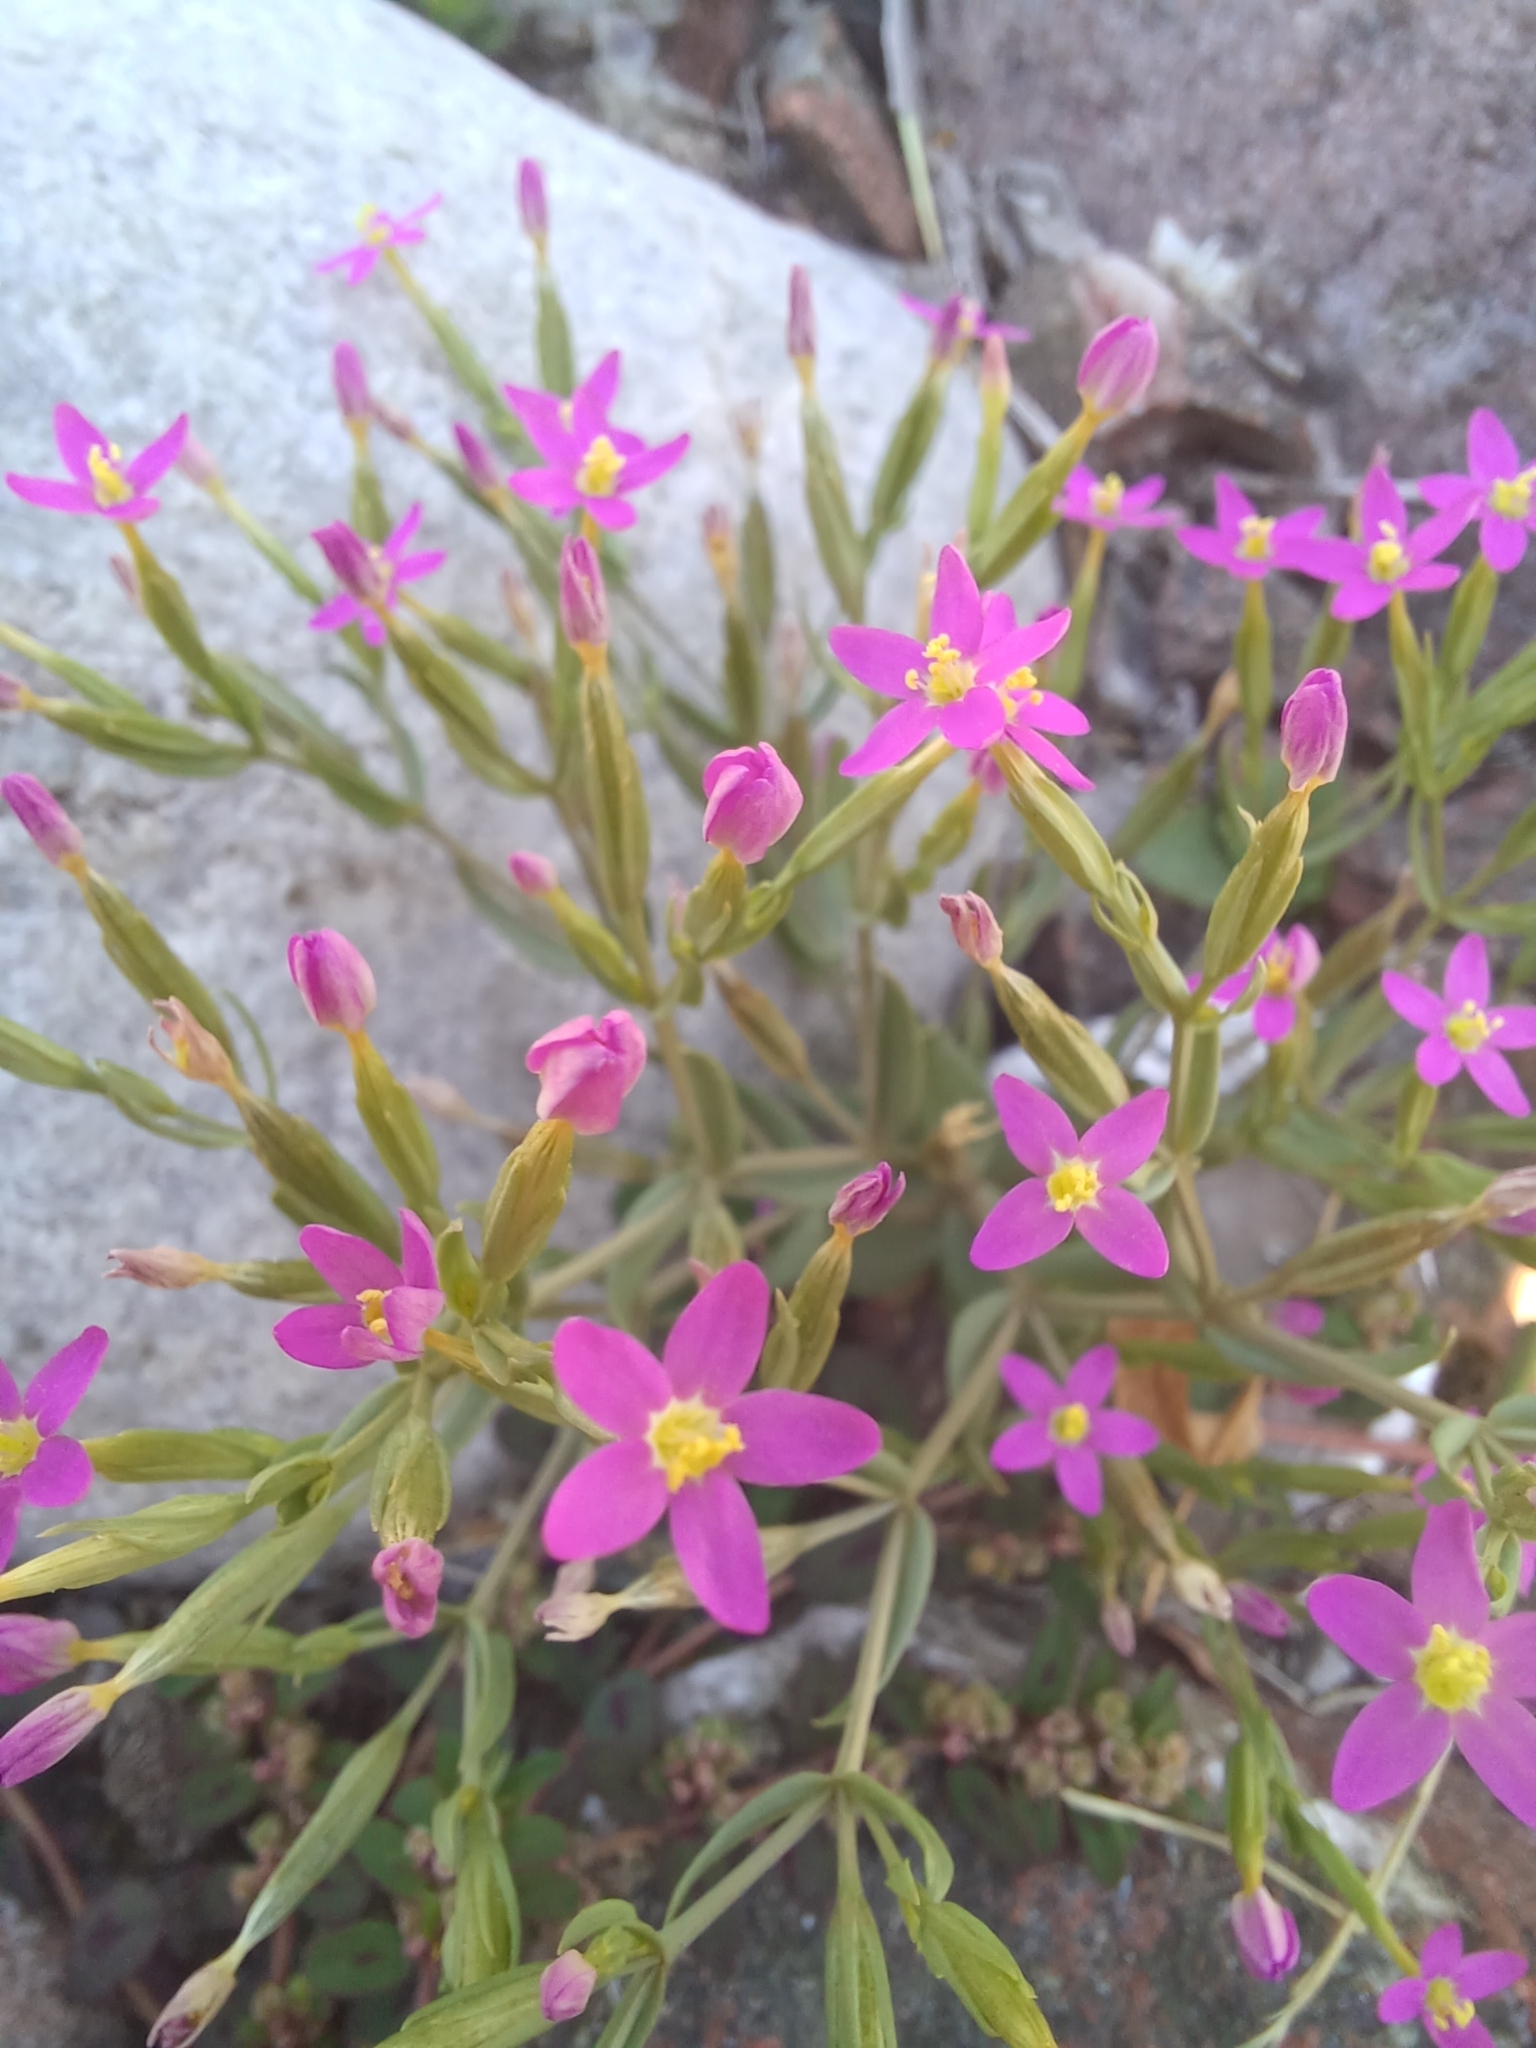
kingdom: Plantae
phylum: Tracheophyta
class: Magnoliopsida
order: Gentianales
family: Gentianaceae
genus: Centaurium
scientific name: Centaurium pulchellum
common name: Lesser centaury
